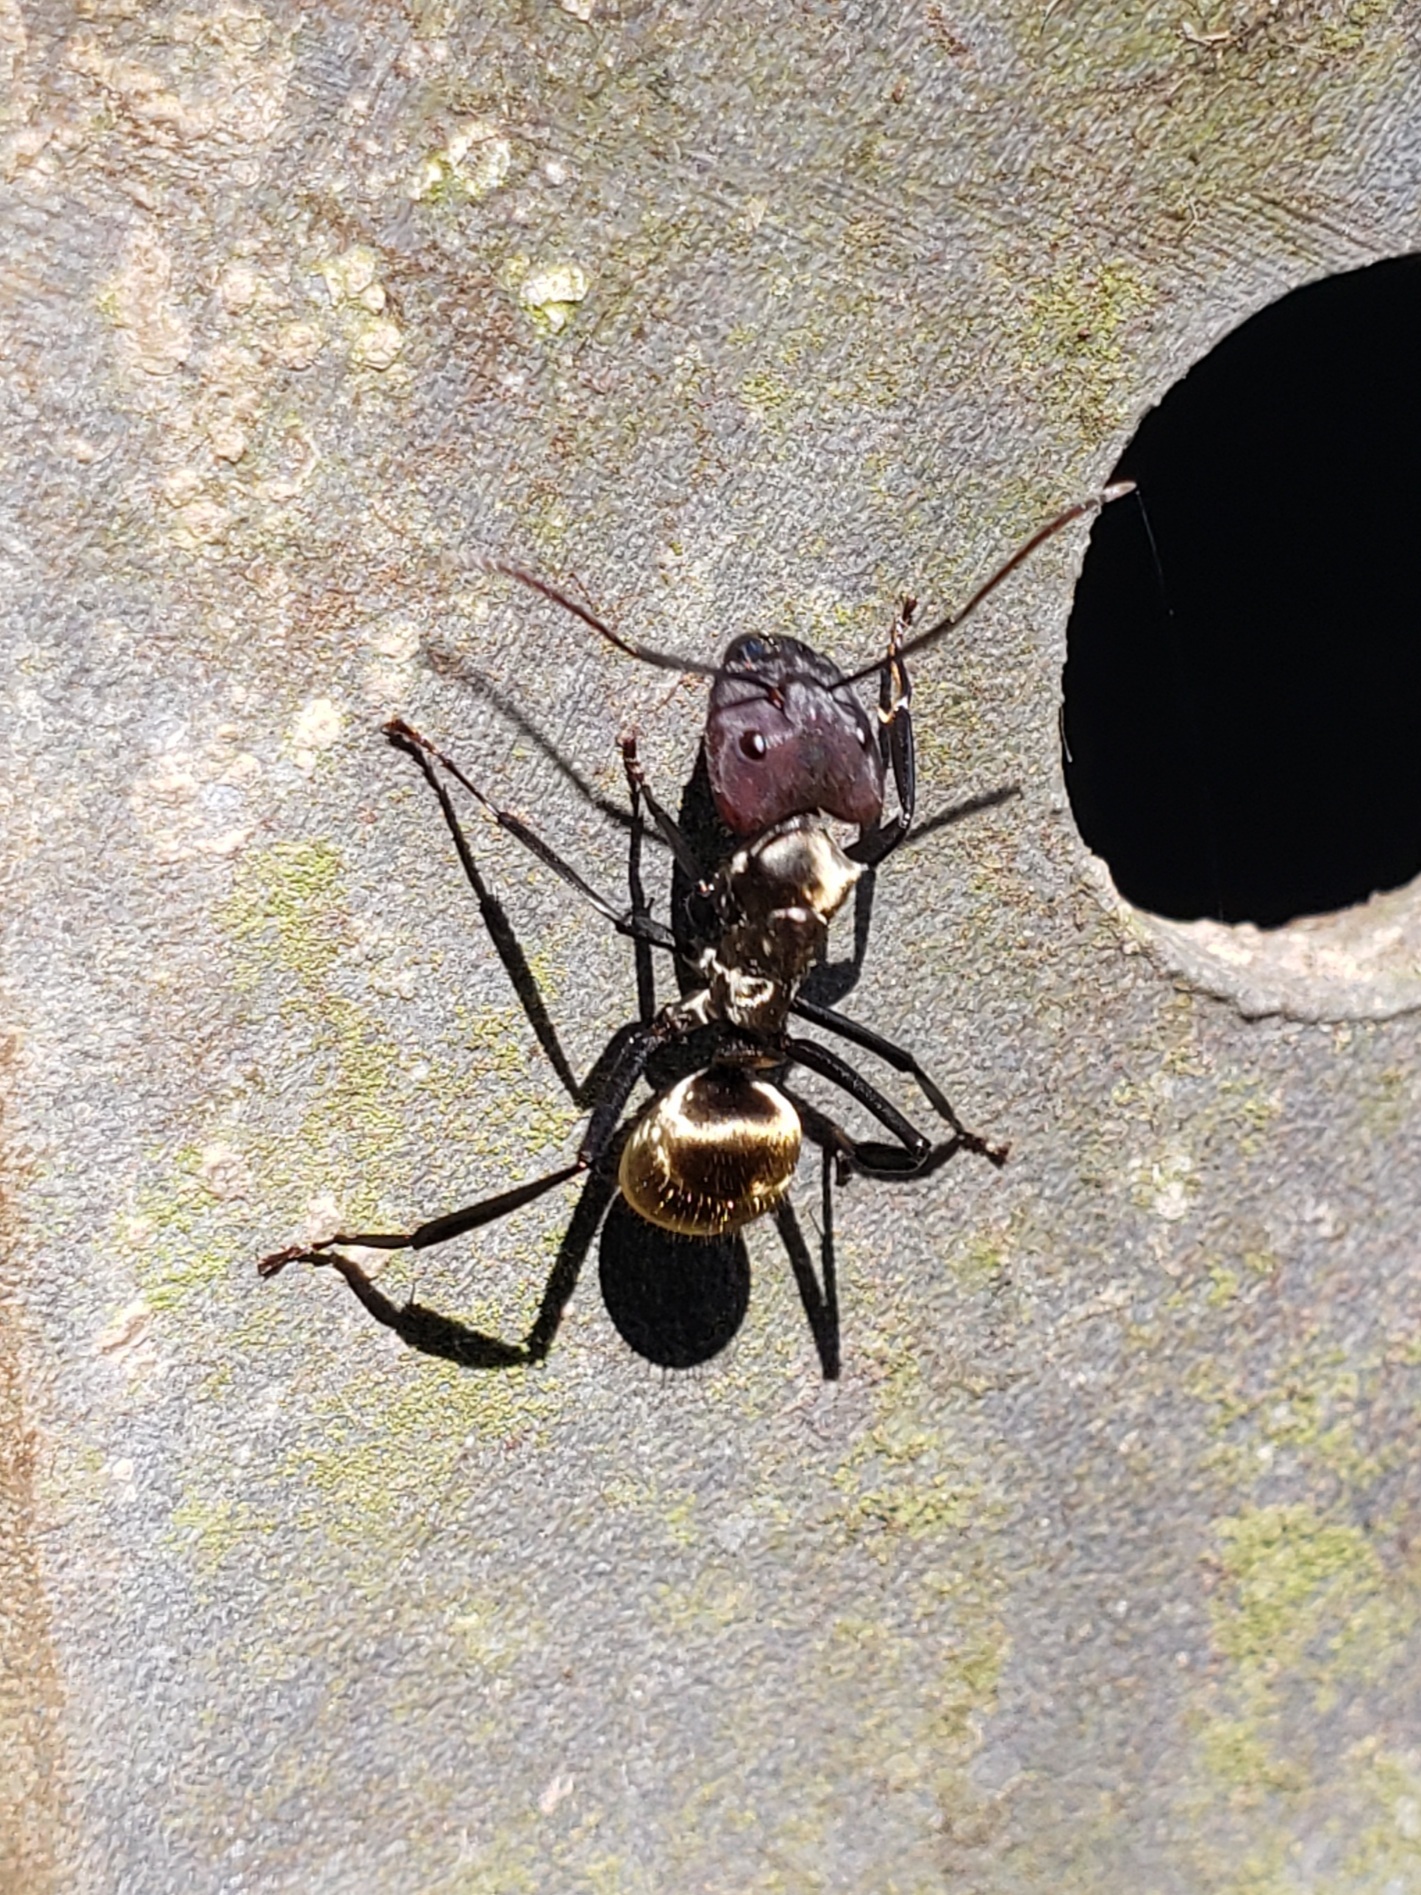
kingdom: Animalia
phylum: Arthropoda
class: Insecta
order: Hymenoptera
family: Formicidae
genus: Camponotus
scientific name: Camponotus sericeiventris
